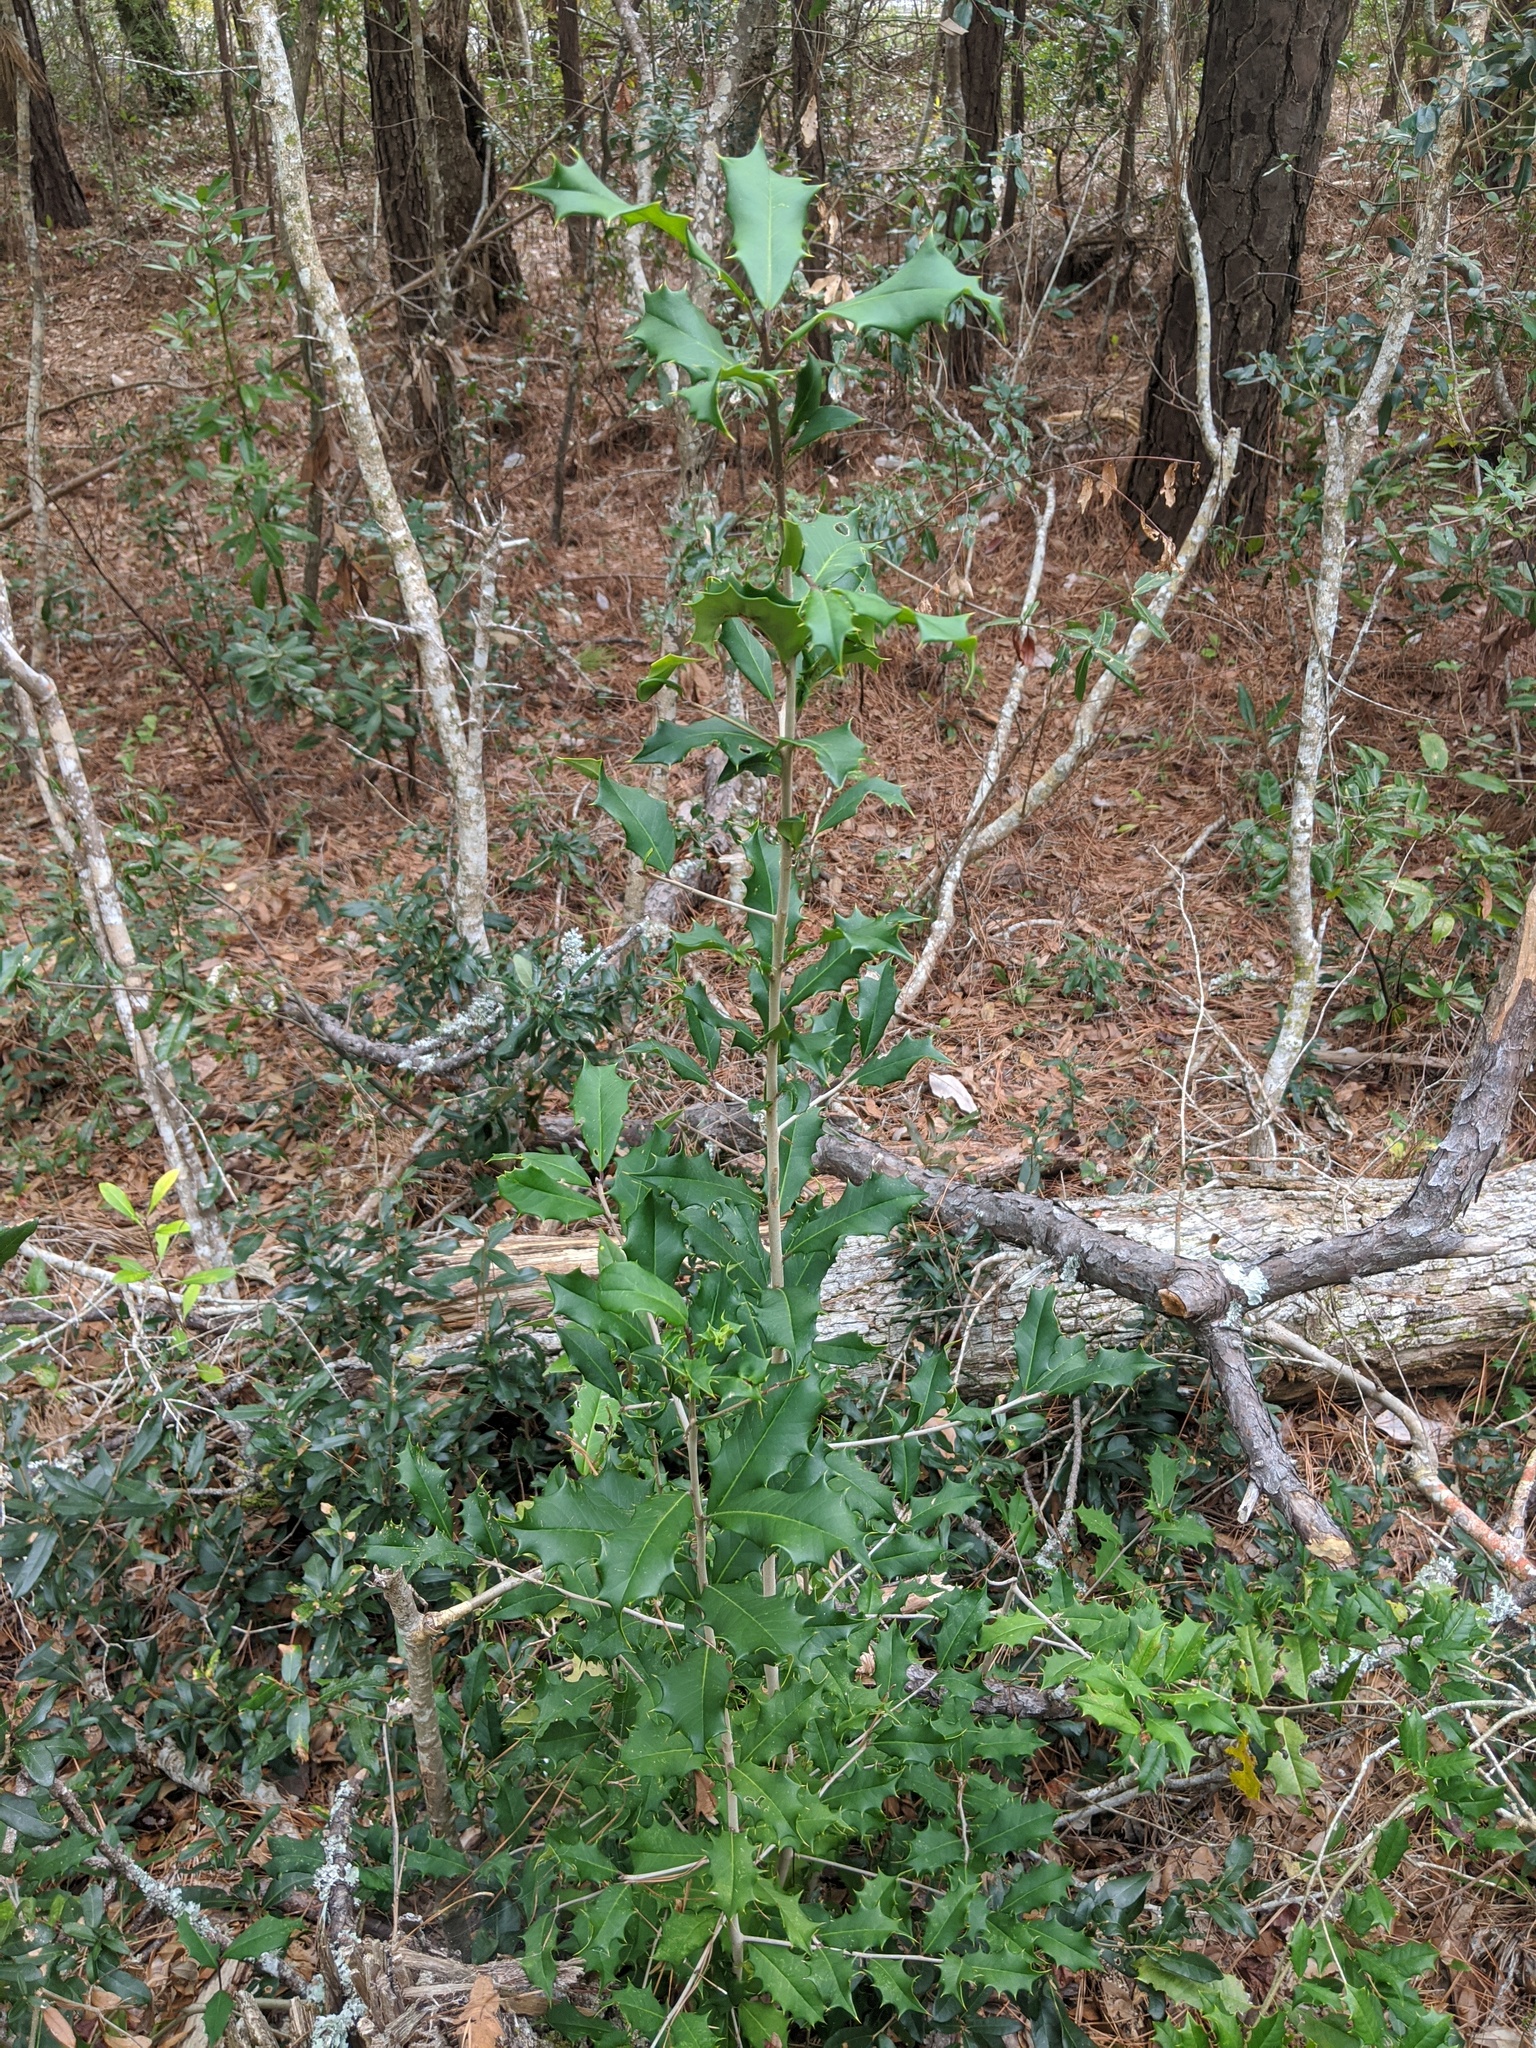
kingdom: Plantae
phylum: Tracheophyta
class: Magnoliopsida
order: Aquifoliales
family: Aquifoliaceae
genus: Ilex
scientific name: Ilex opaca
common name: American holly
